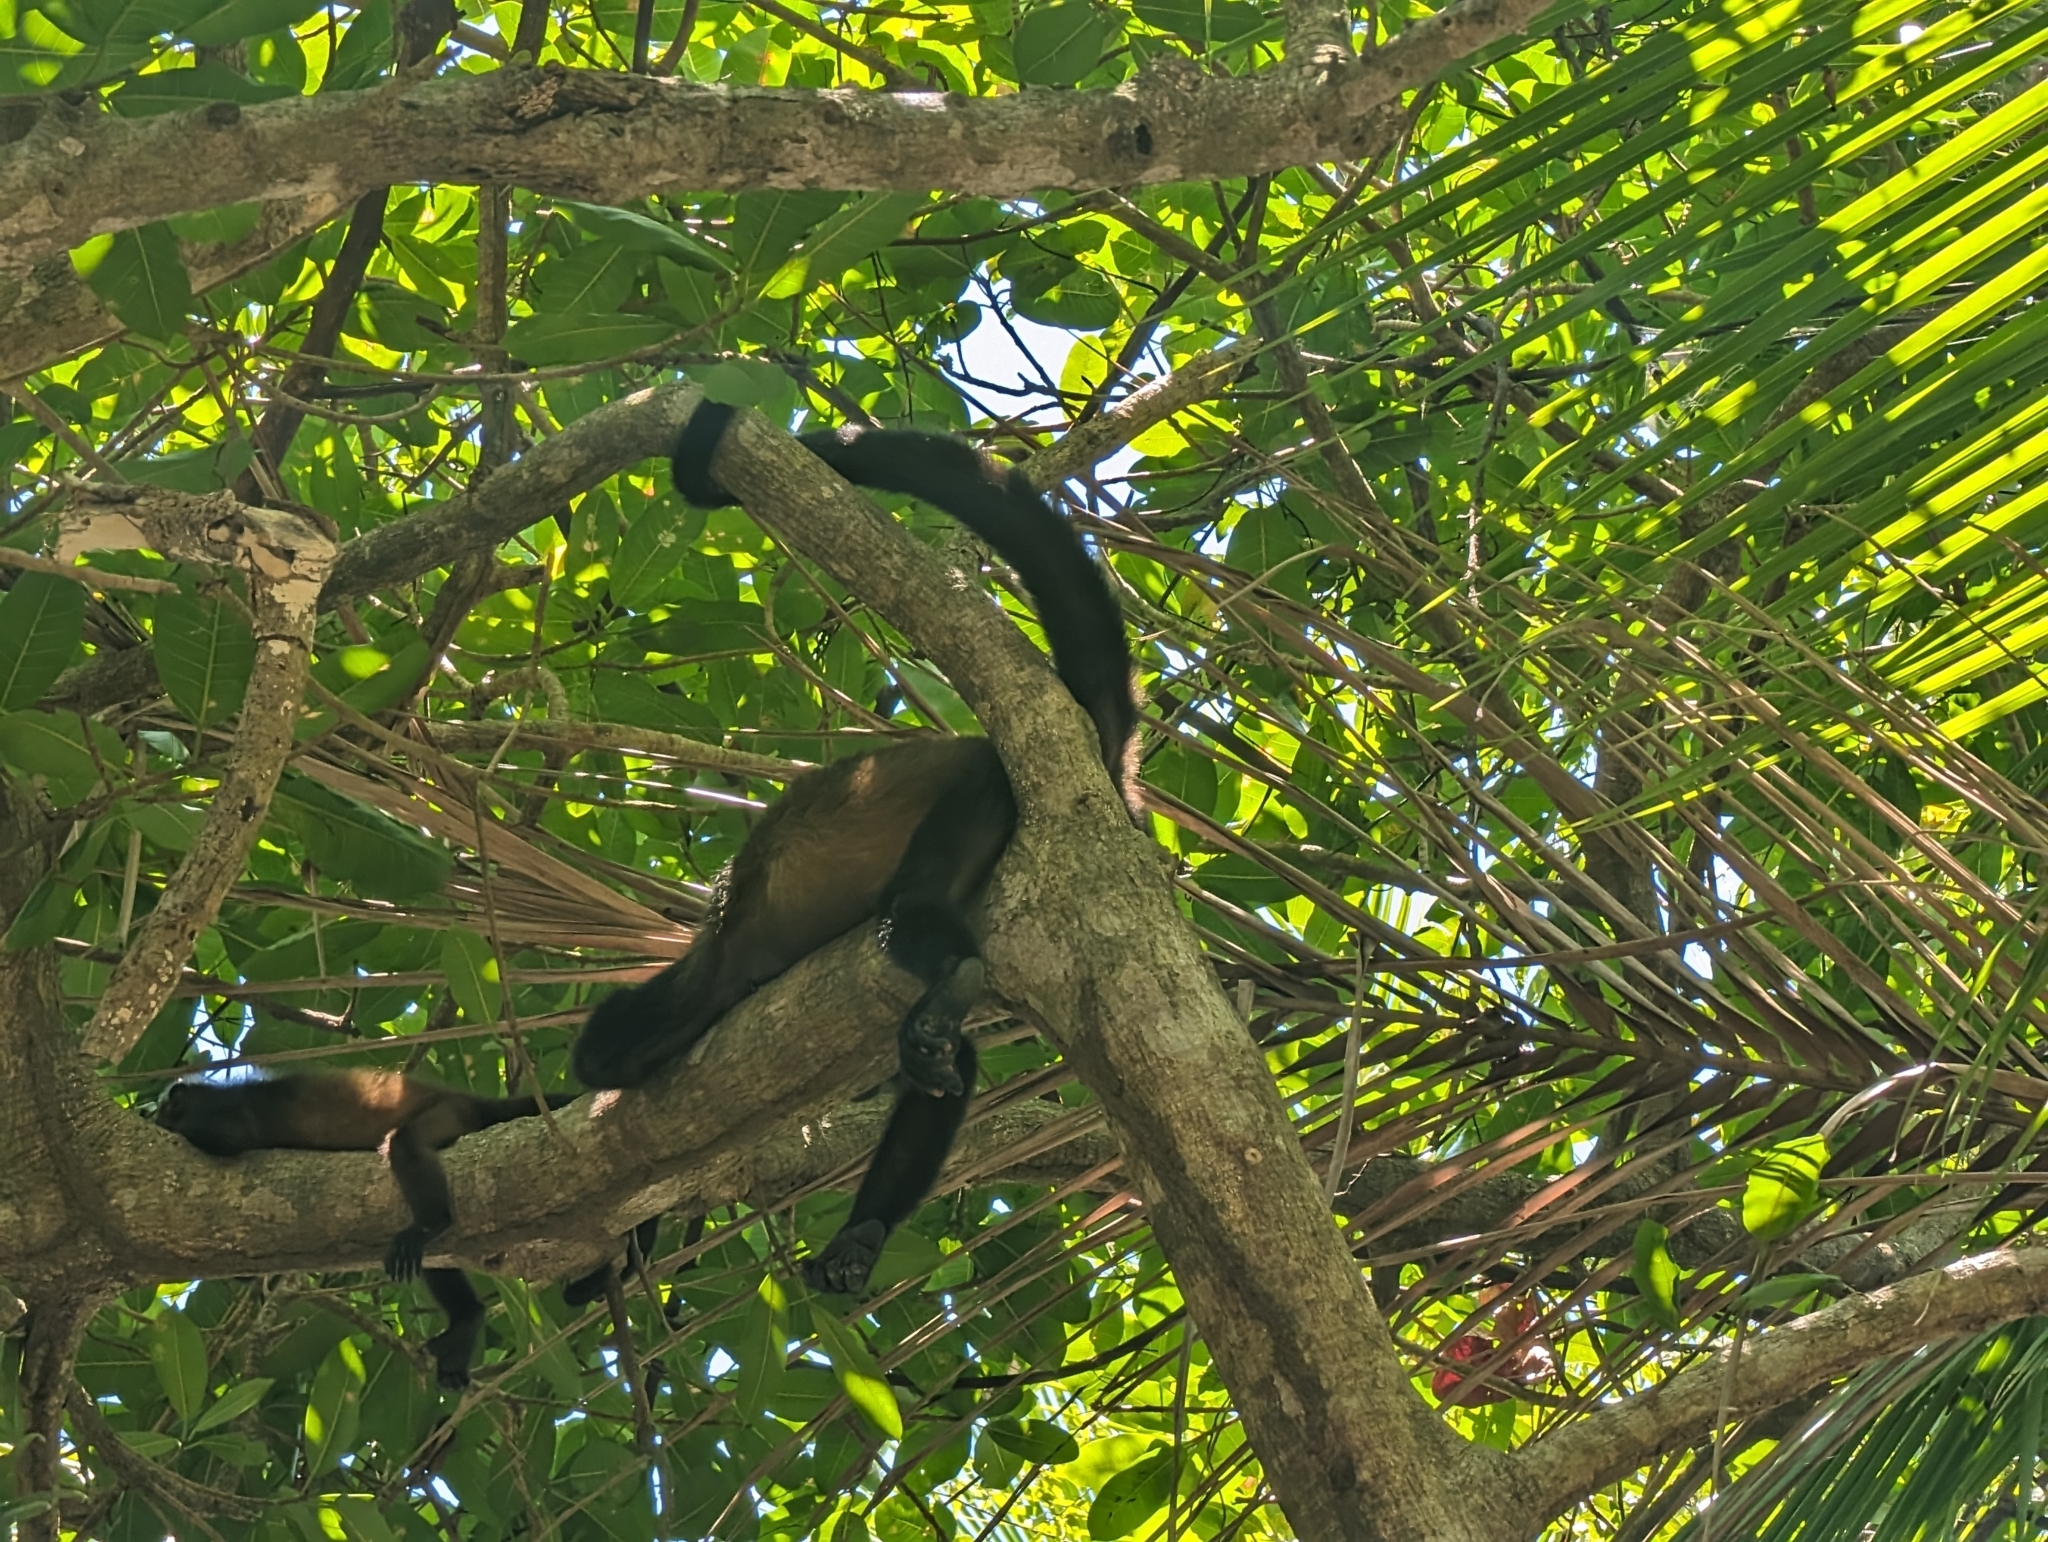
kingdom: Animalia
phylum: Chordata
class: Mammalia
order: Primates
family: Atelidae
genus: Alouatta
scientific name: Alouatta palliata
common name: Mantled howler
